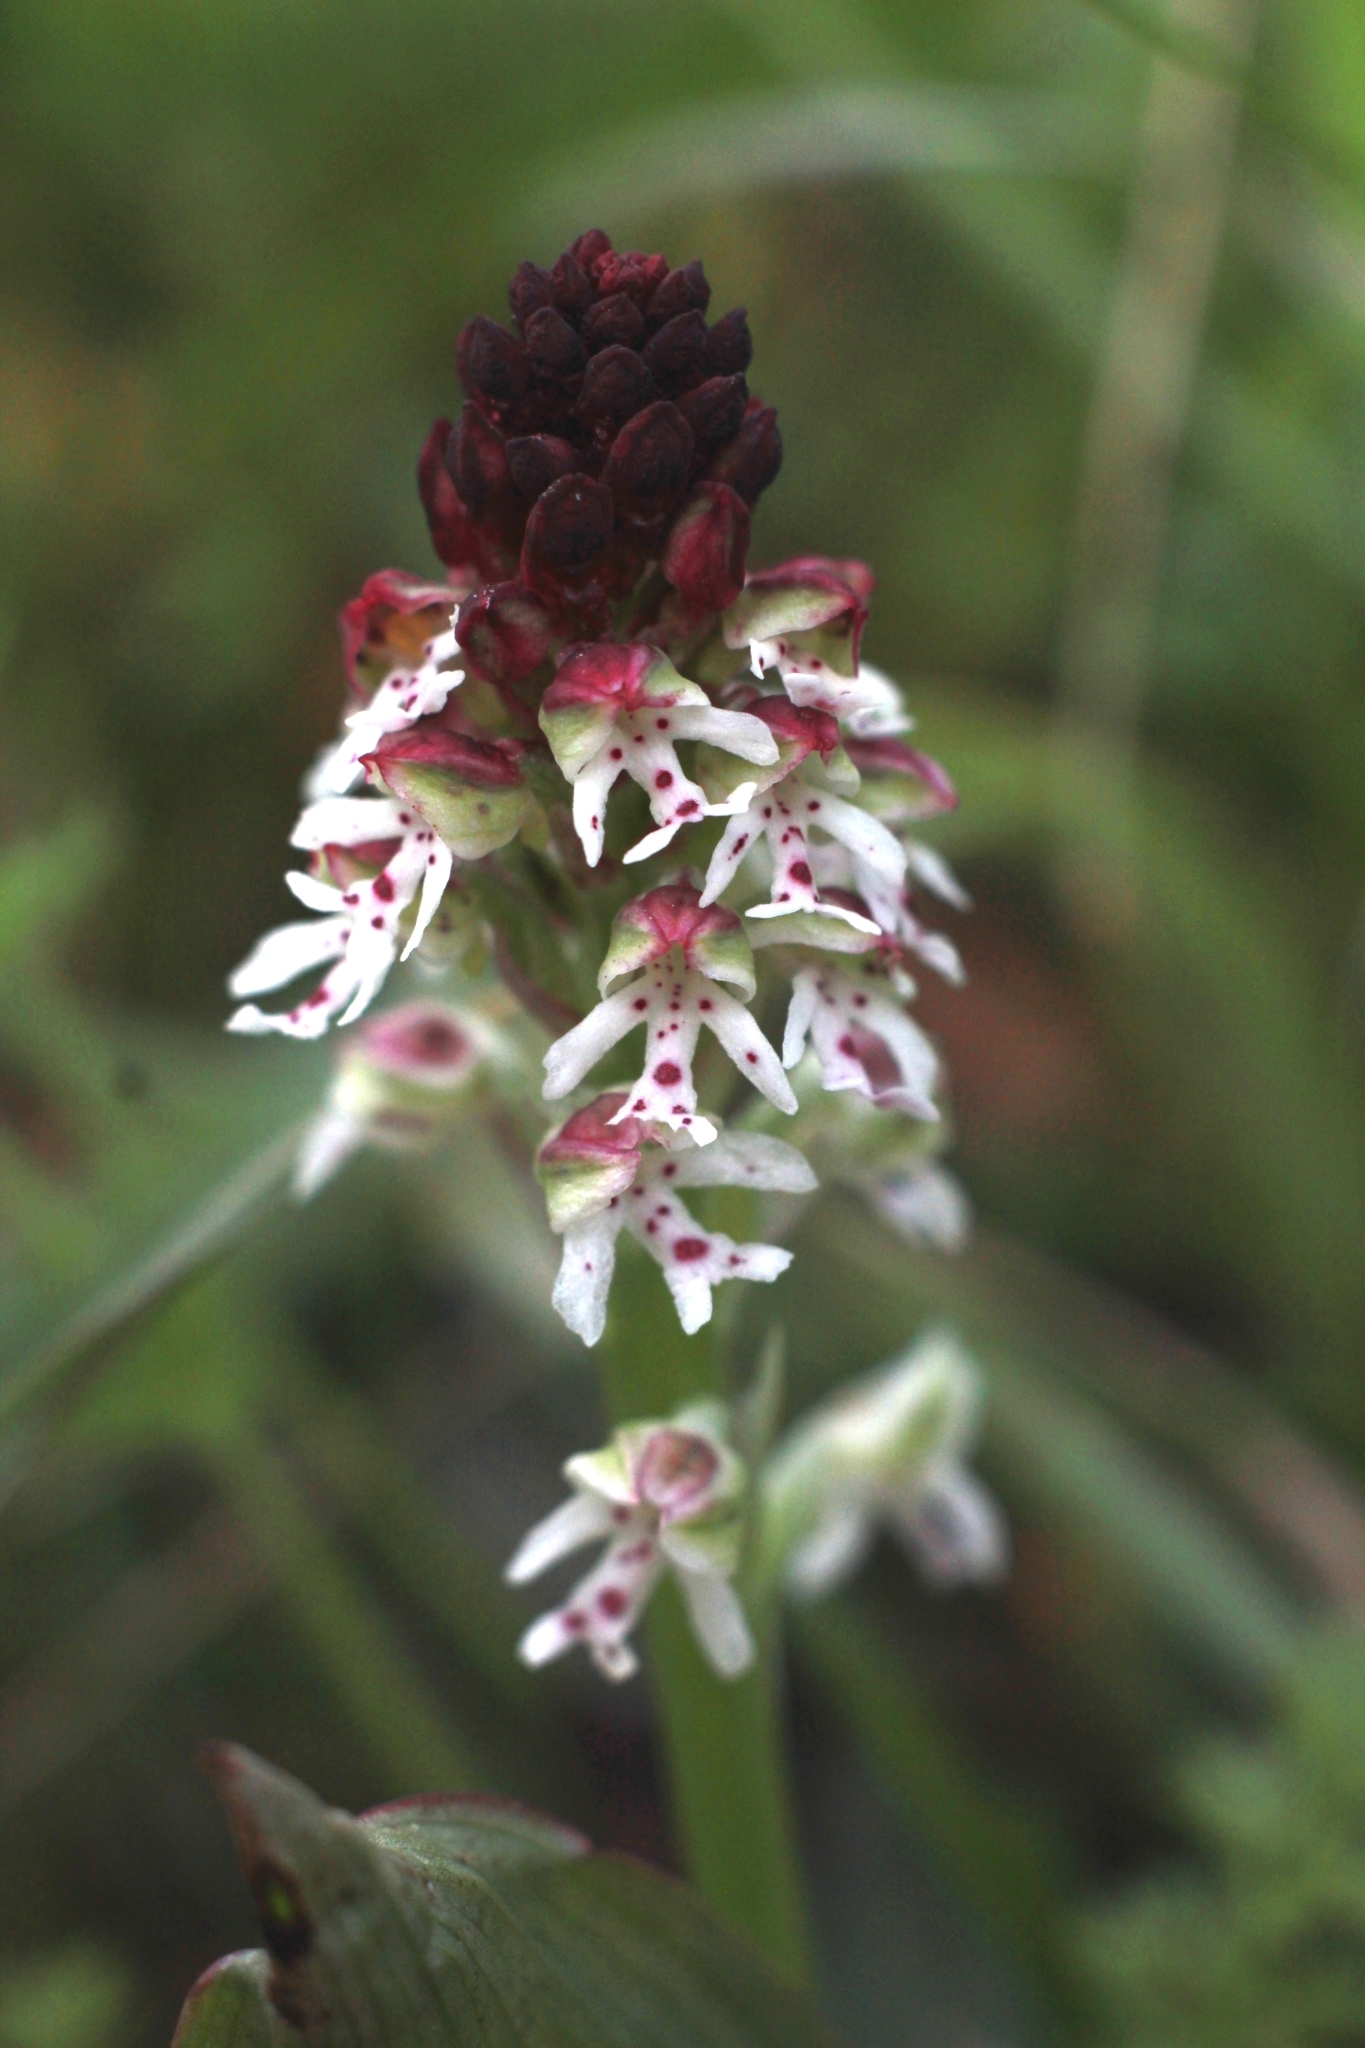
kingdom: Plantae
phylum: Tracheophyta
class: Liliopsida
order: Asparagales
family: Orchidaceae
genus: Neotinea
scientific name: Neotinea ustulata
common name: Burnt orchid
